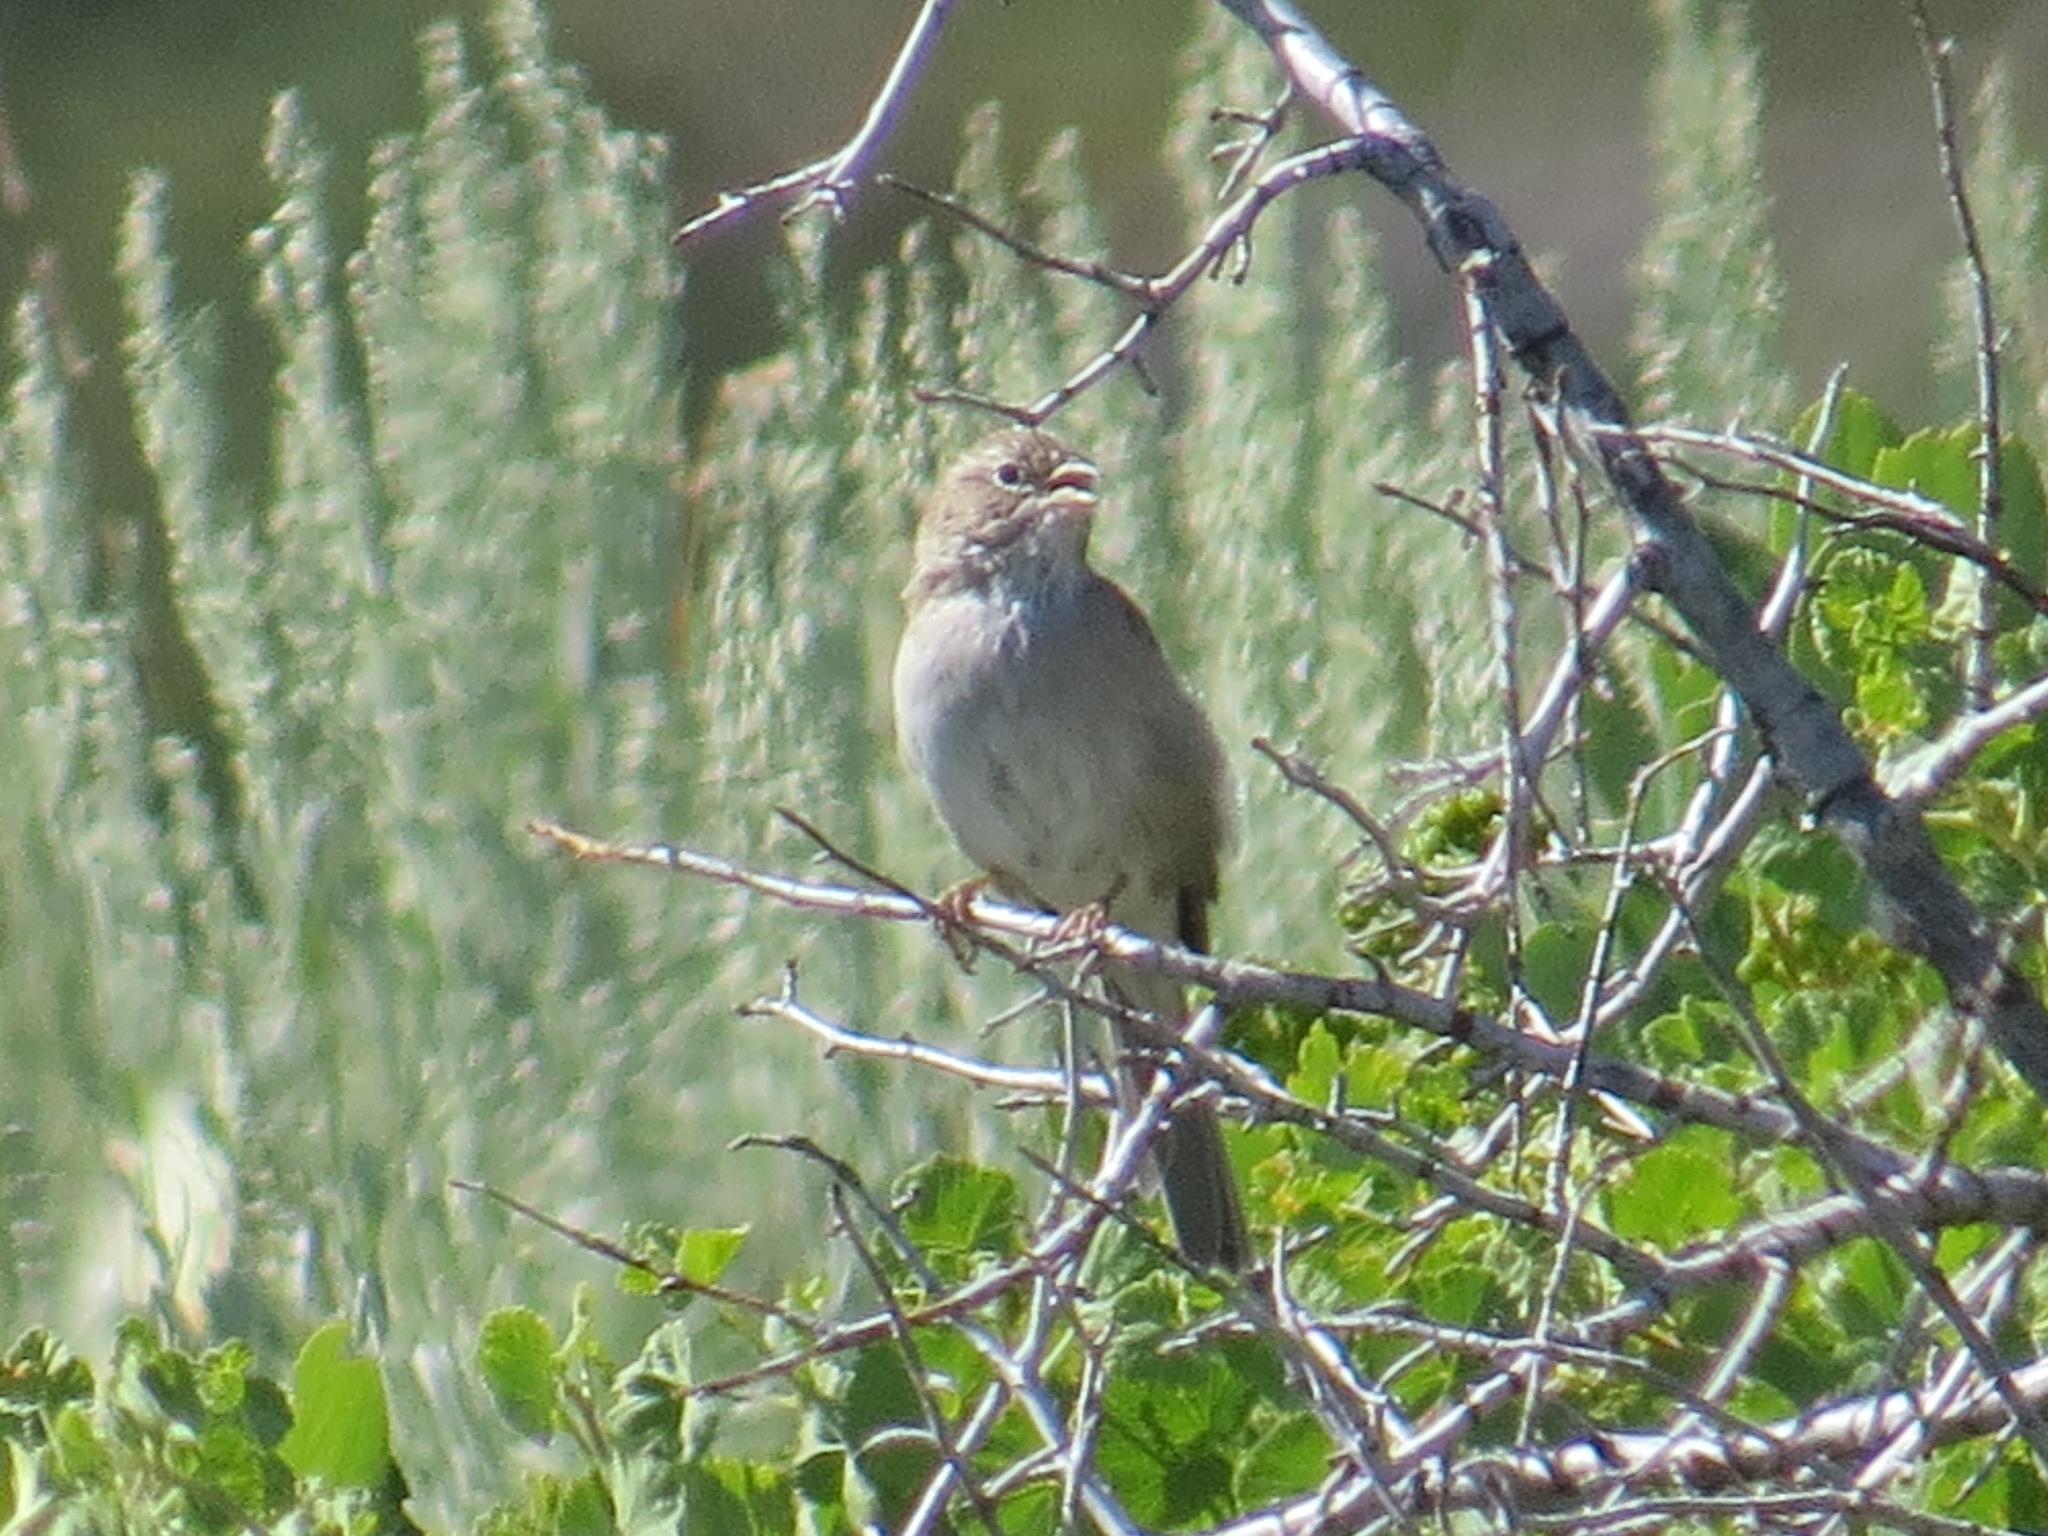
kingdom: Animalia
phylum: Chordata
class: Aves
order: Passeriformes
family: Passerellidae
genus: Spizella
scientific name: Spizella breweri
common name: Brewer's sparrow
